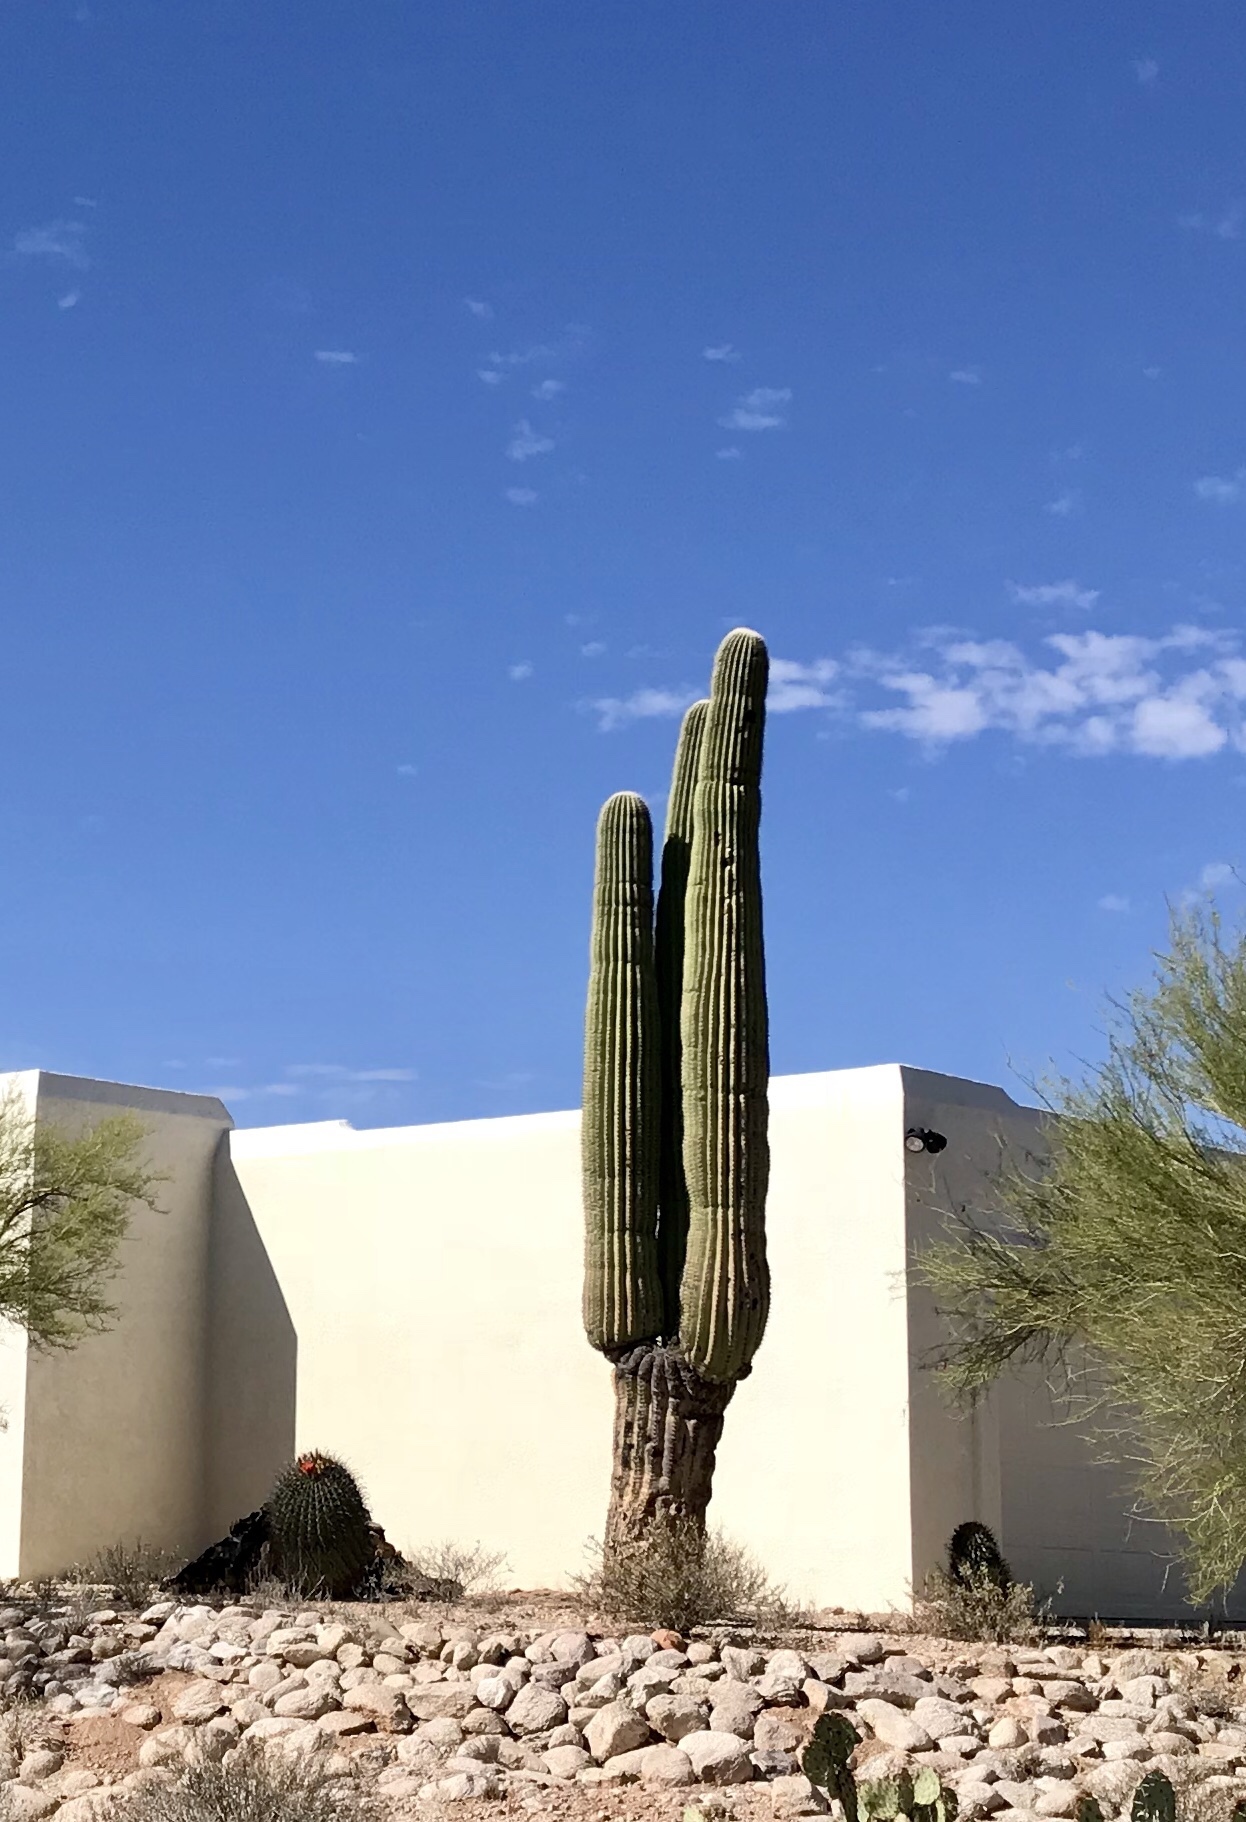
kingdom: Plantae
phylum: Tracheophyta
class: Magnoliopsida
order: Caryophyllales
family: Cactaceae
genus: Carnegiea
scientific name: Carnegiea gigantea
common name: Saguaro
